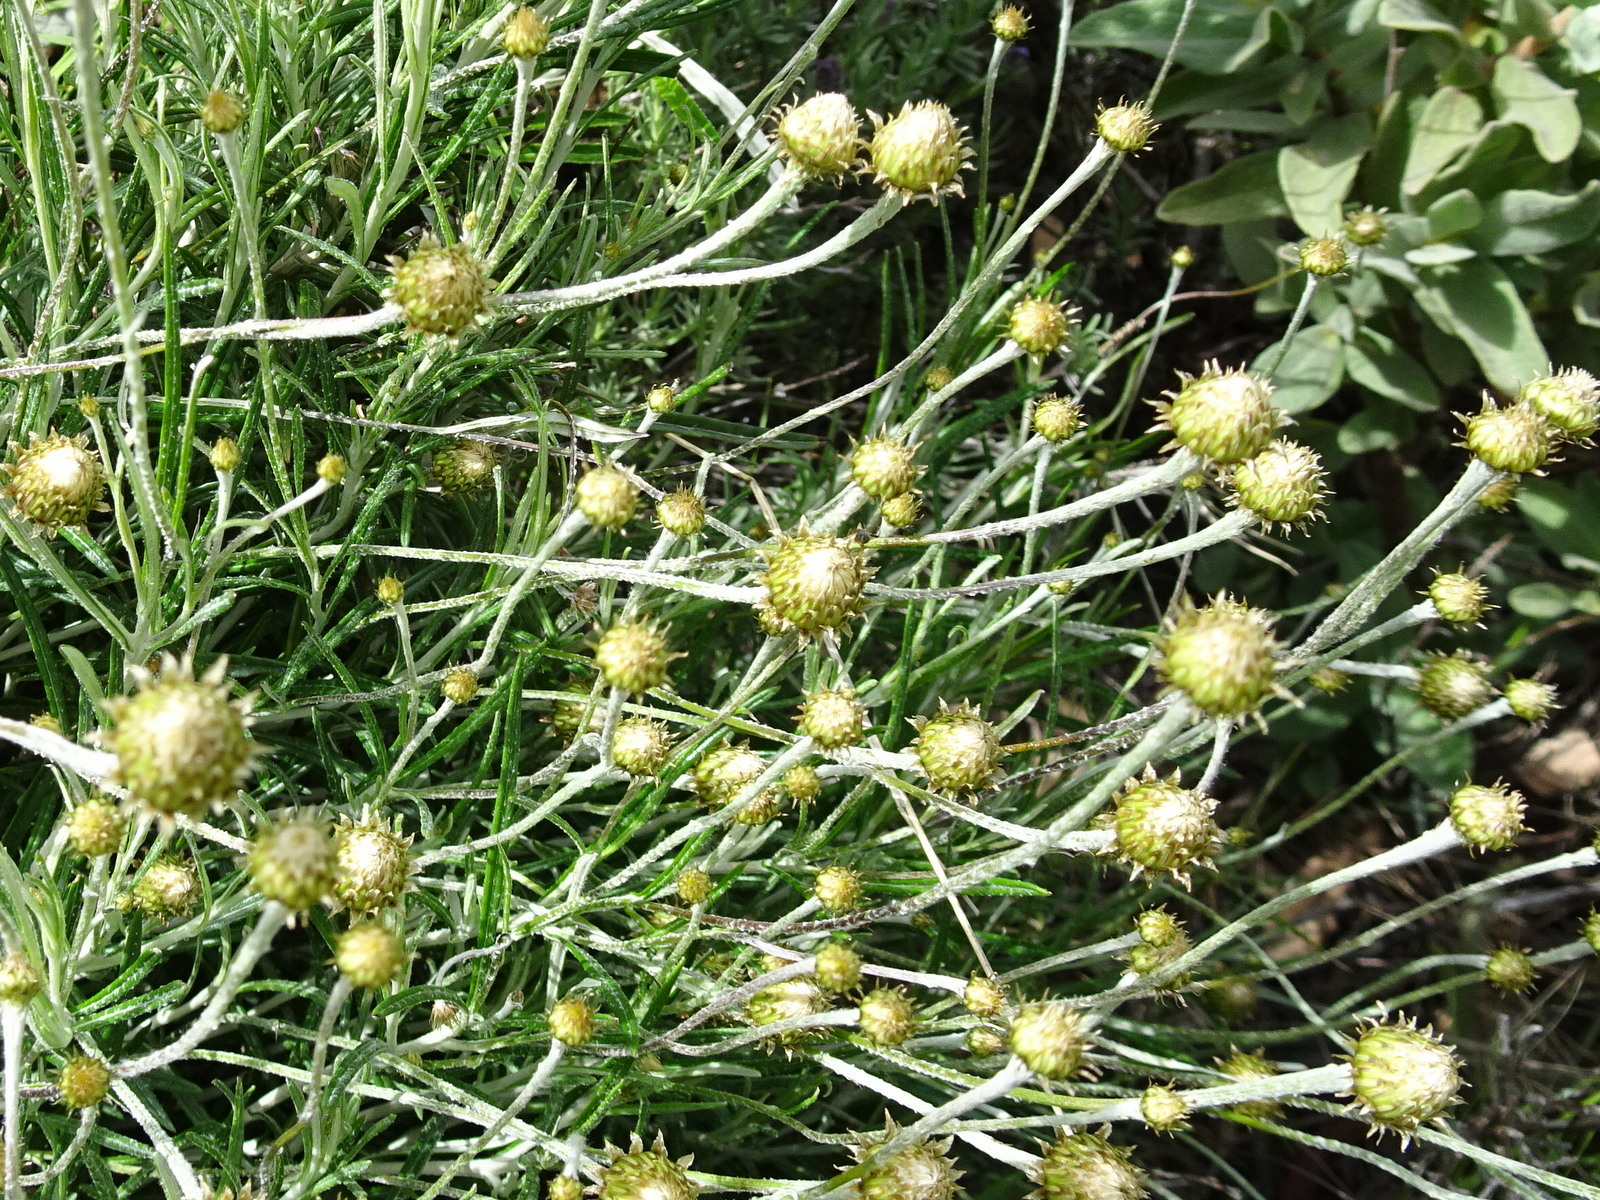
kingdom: Plantae
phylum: Tracheophyta
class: Magnoliopsida
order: Asterales
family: Asteraceae
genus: Phagnalon
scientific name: Phagnalon saxatile
